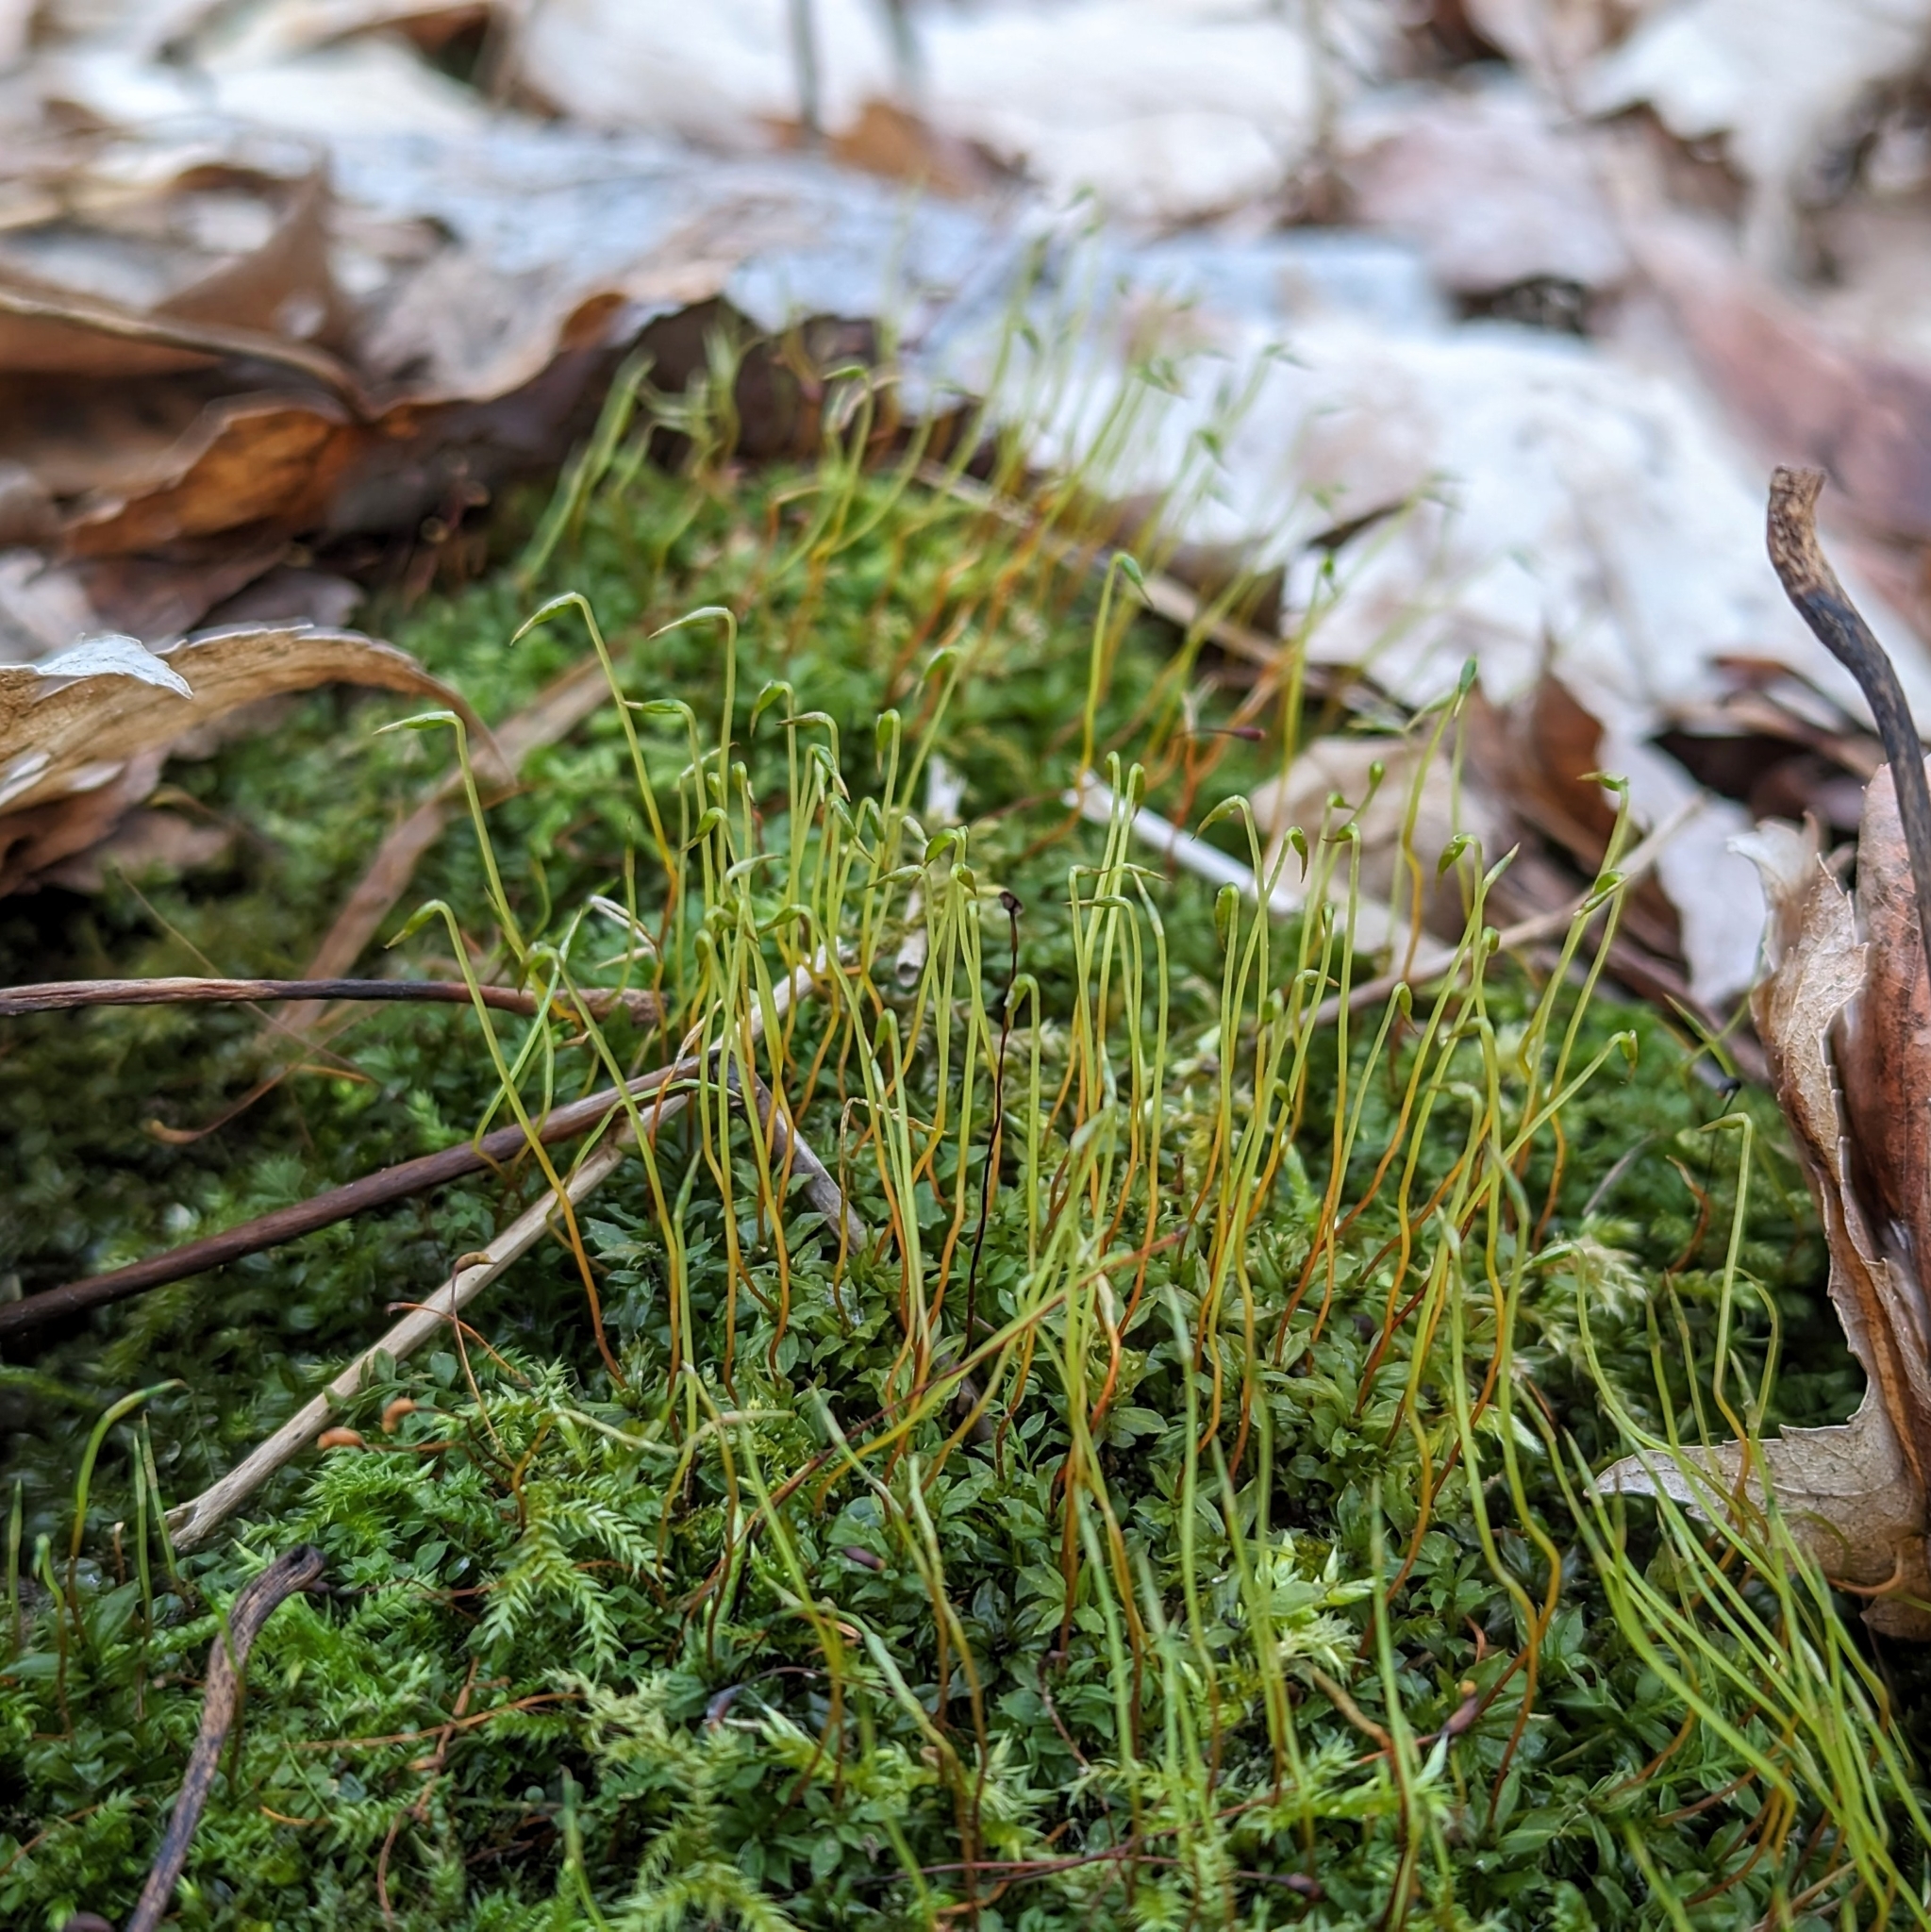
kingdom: Plantae
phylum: Bryophyta
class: Bryopsida
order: Bryales
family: Mniaceae
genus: Plagiomnium
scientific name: Plagiomnium
